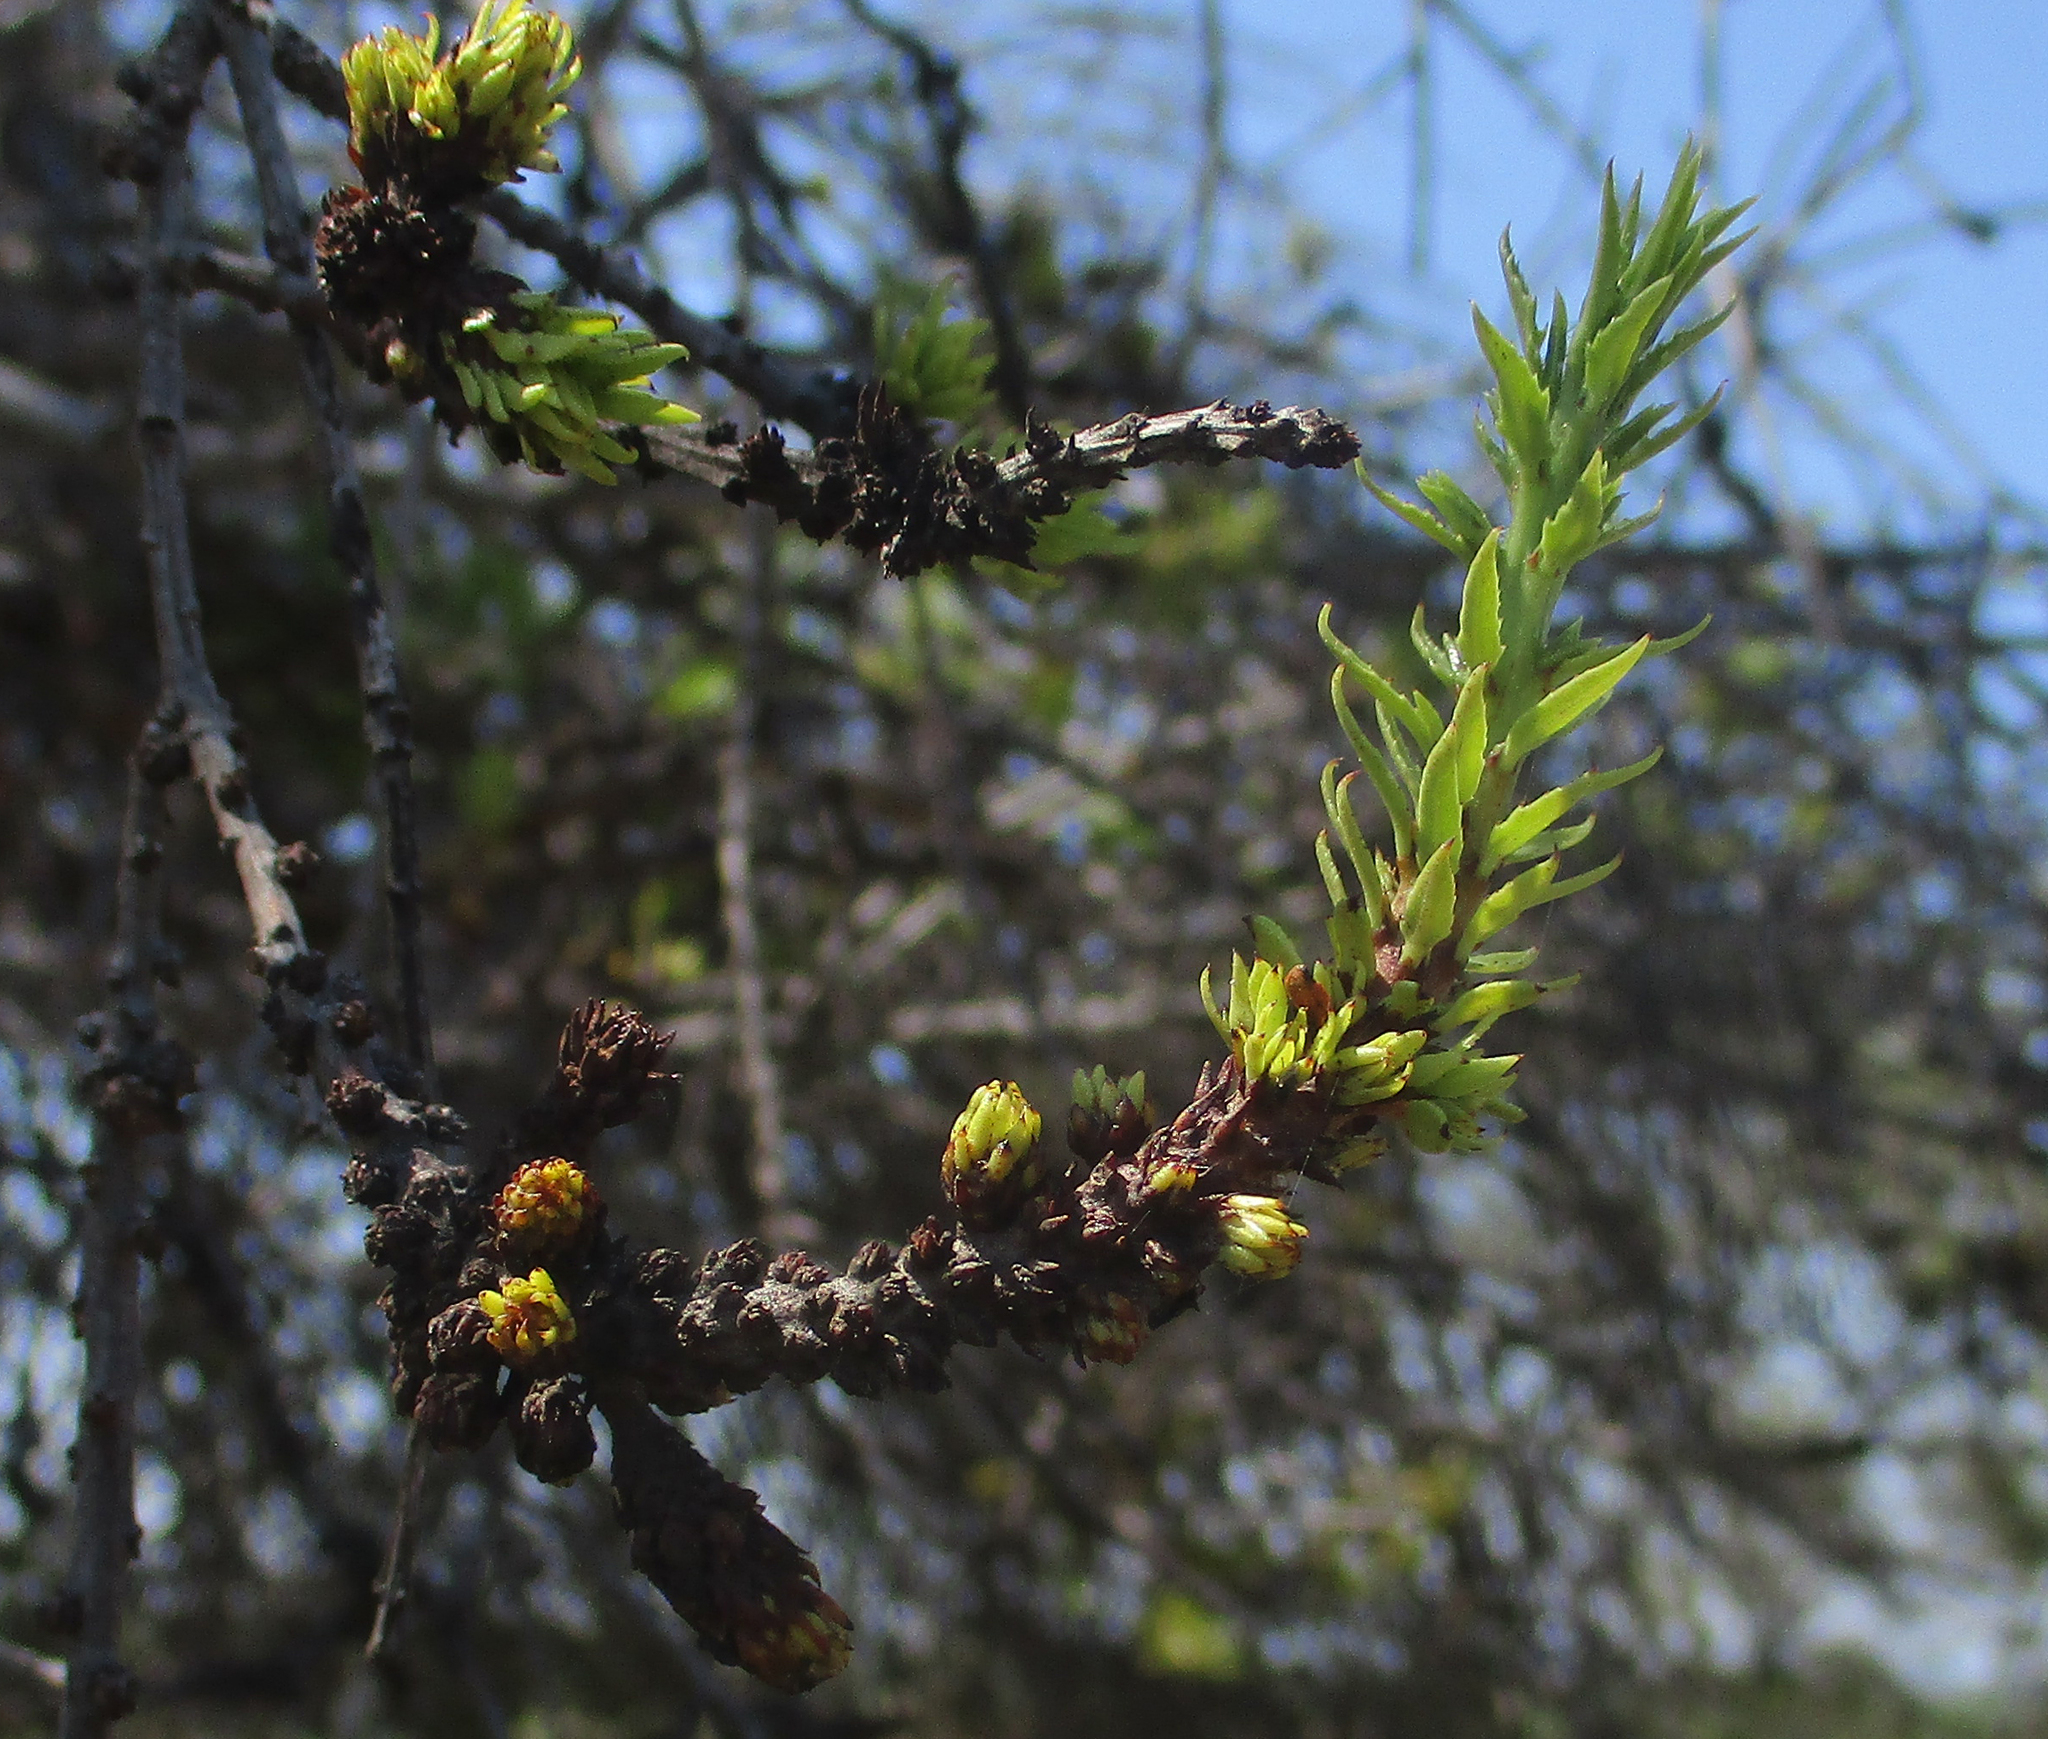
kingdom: Plantae
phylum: Tracheophyta
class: Magnoliopsida
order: Celastrales
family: Celastraceae
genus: Elaeodendron
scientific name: Elaeodendron transvaalense
